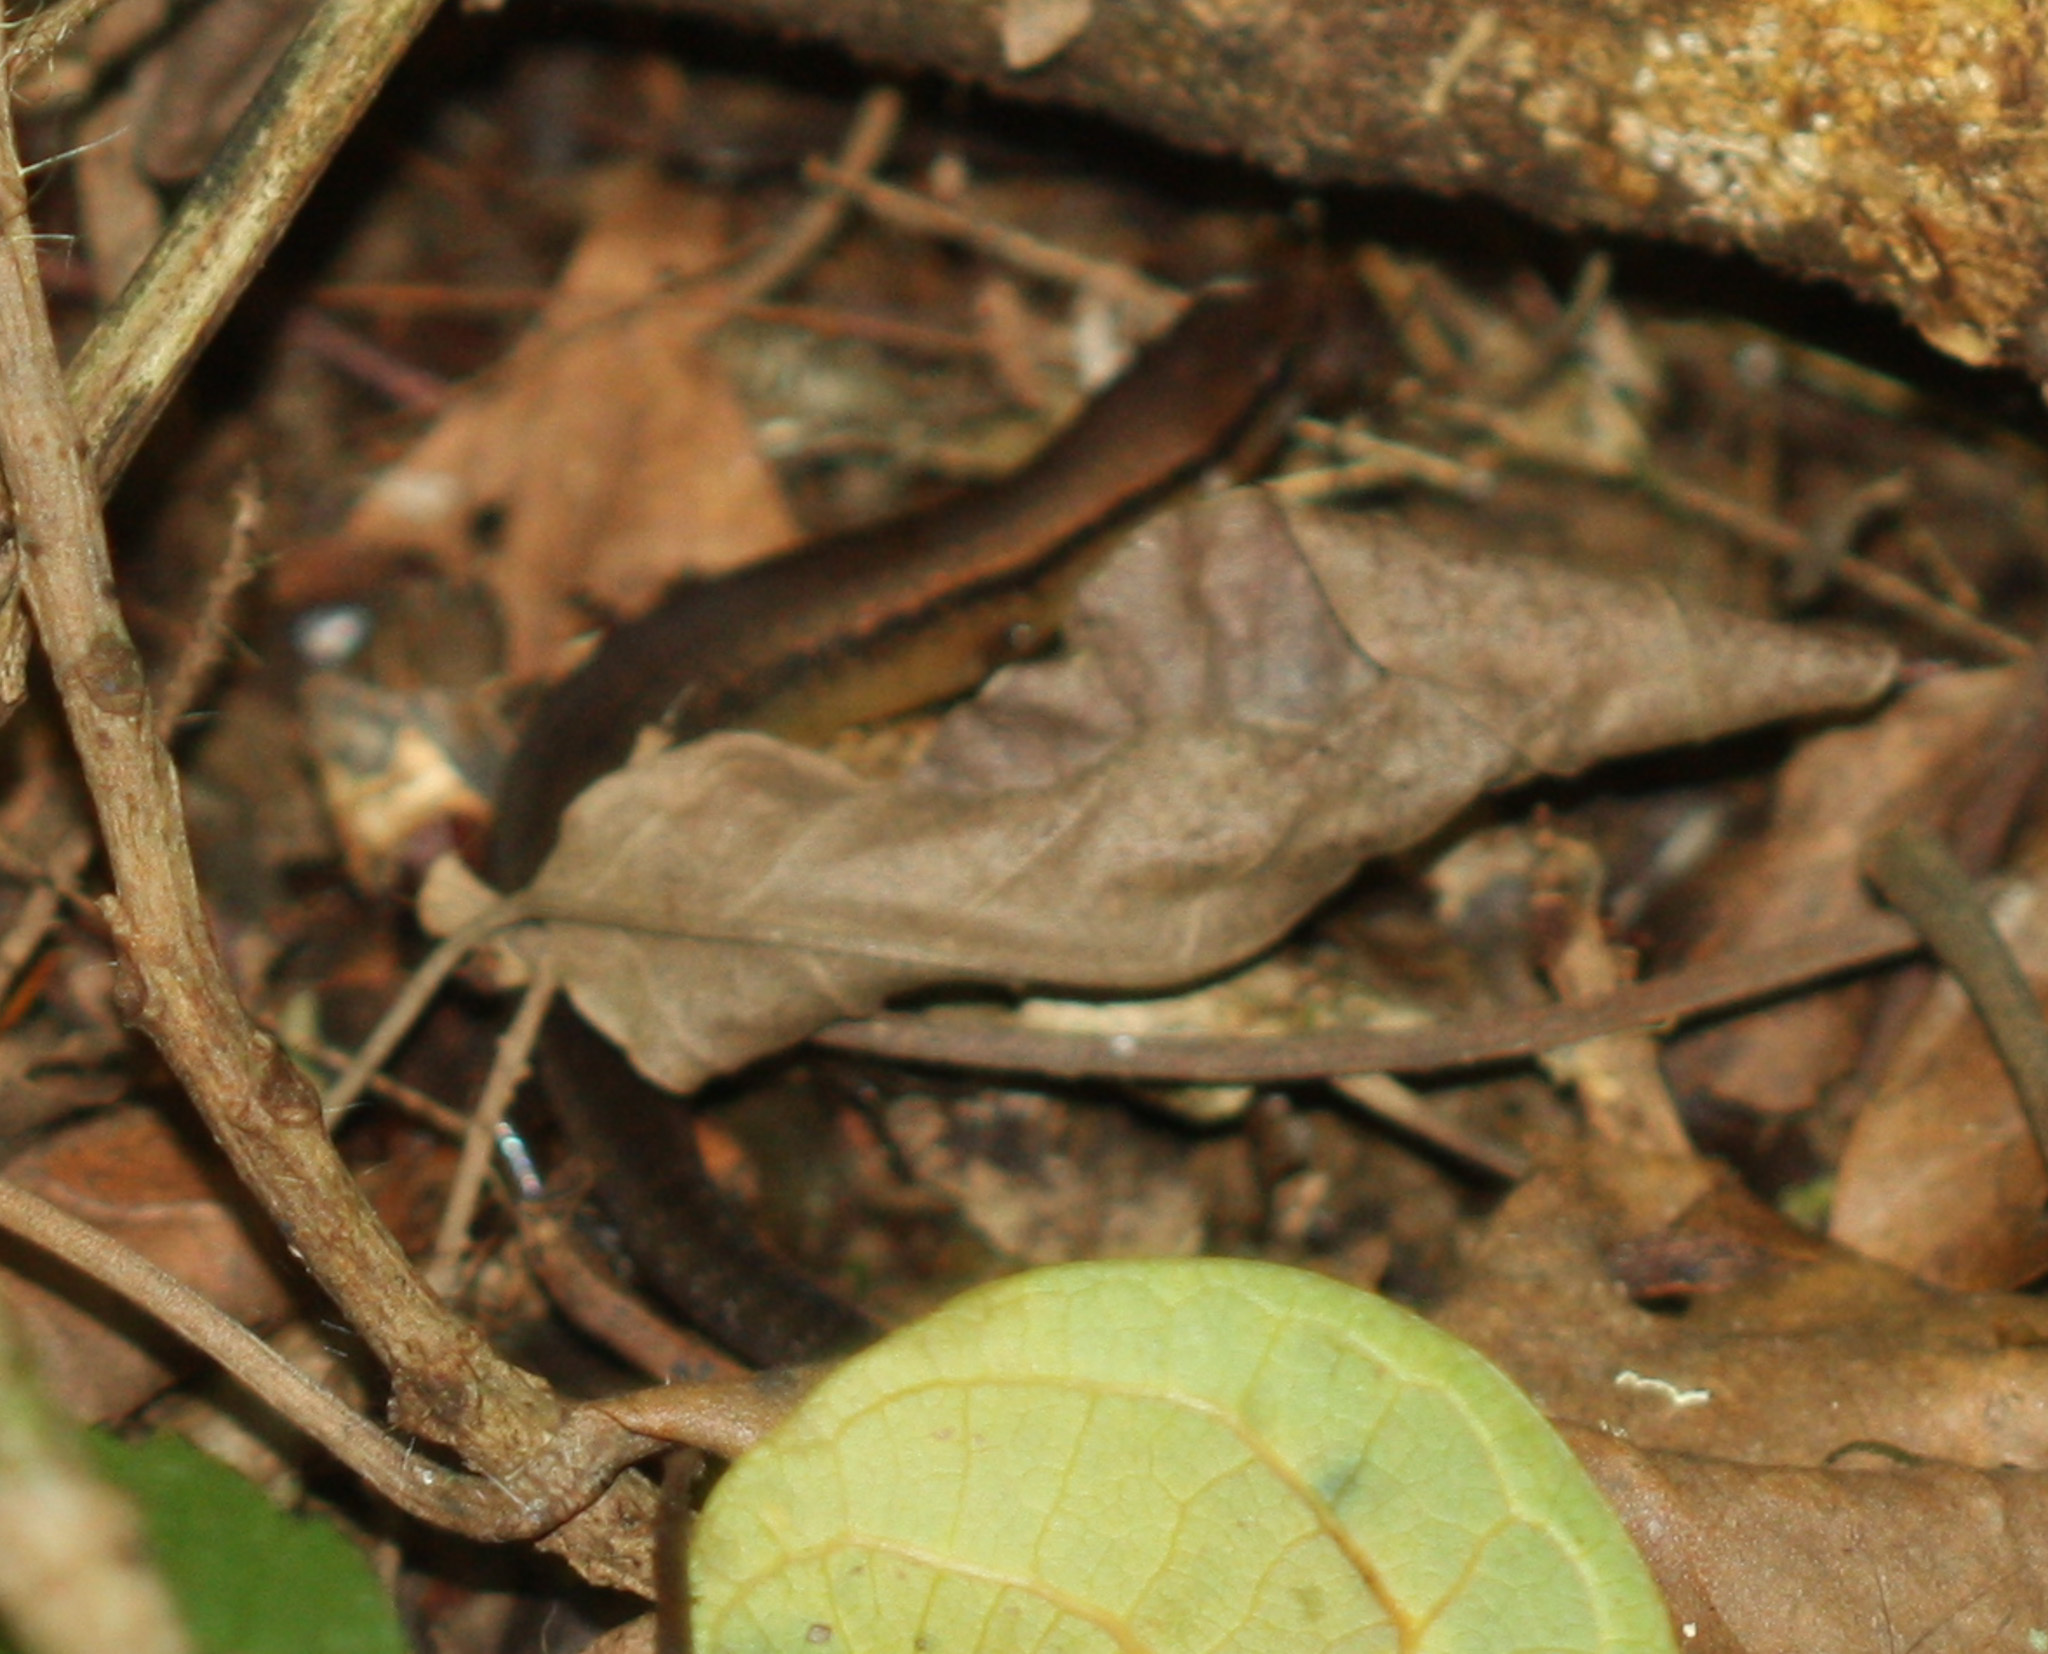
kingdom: Animalia
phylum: Chordata
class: Squamata
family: Scincidae
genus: Scincella
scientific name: Scincella cherriei
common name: Brown forest skink
